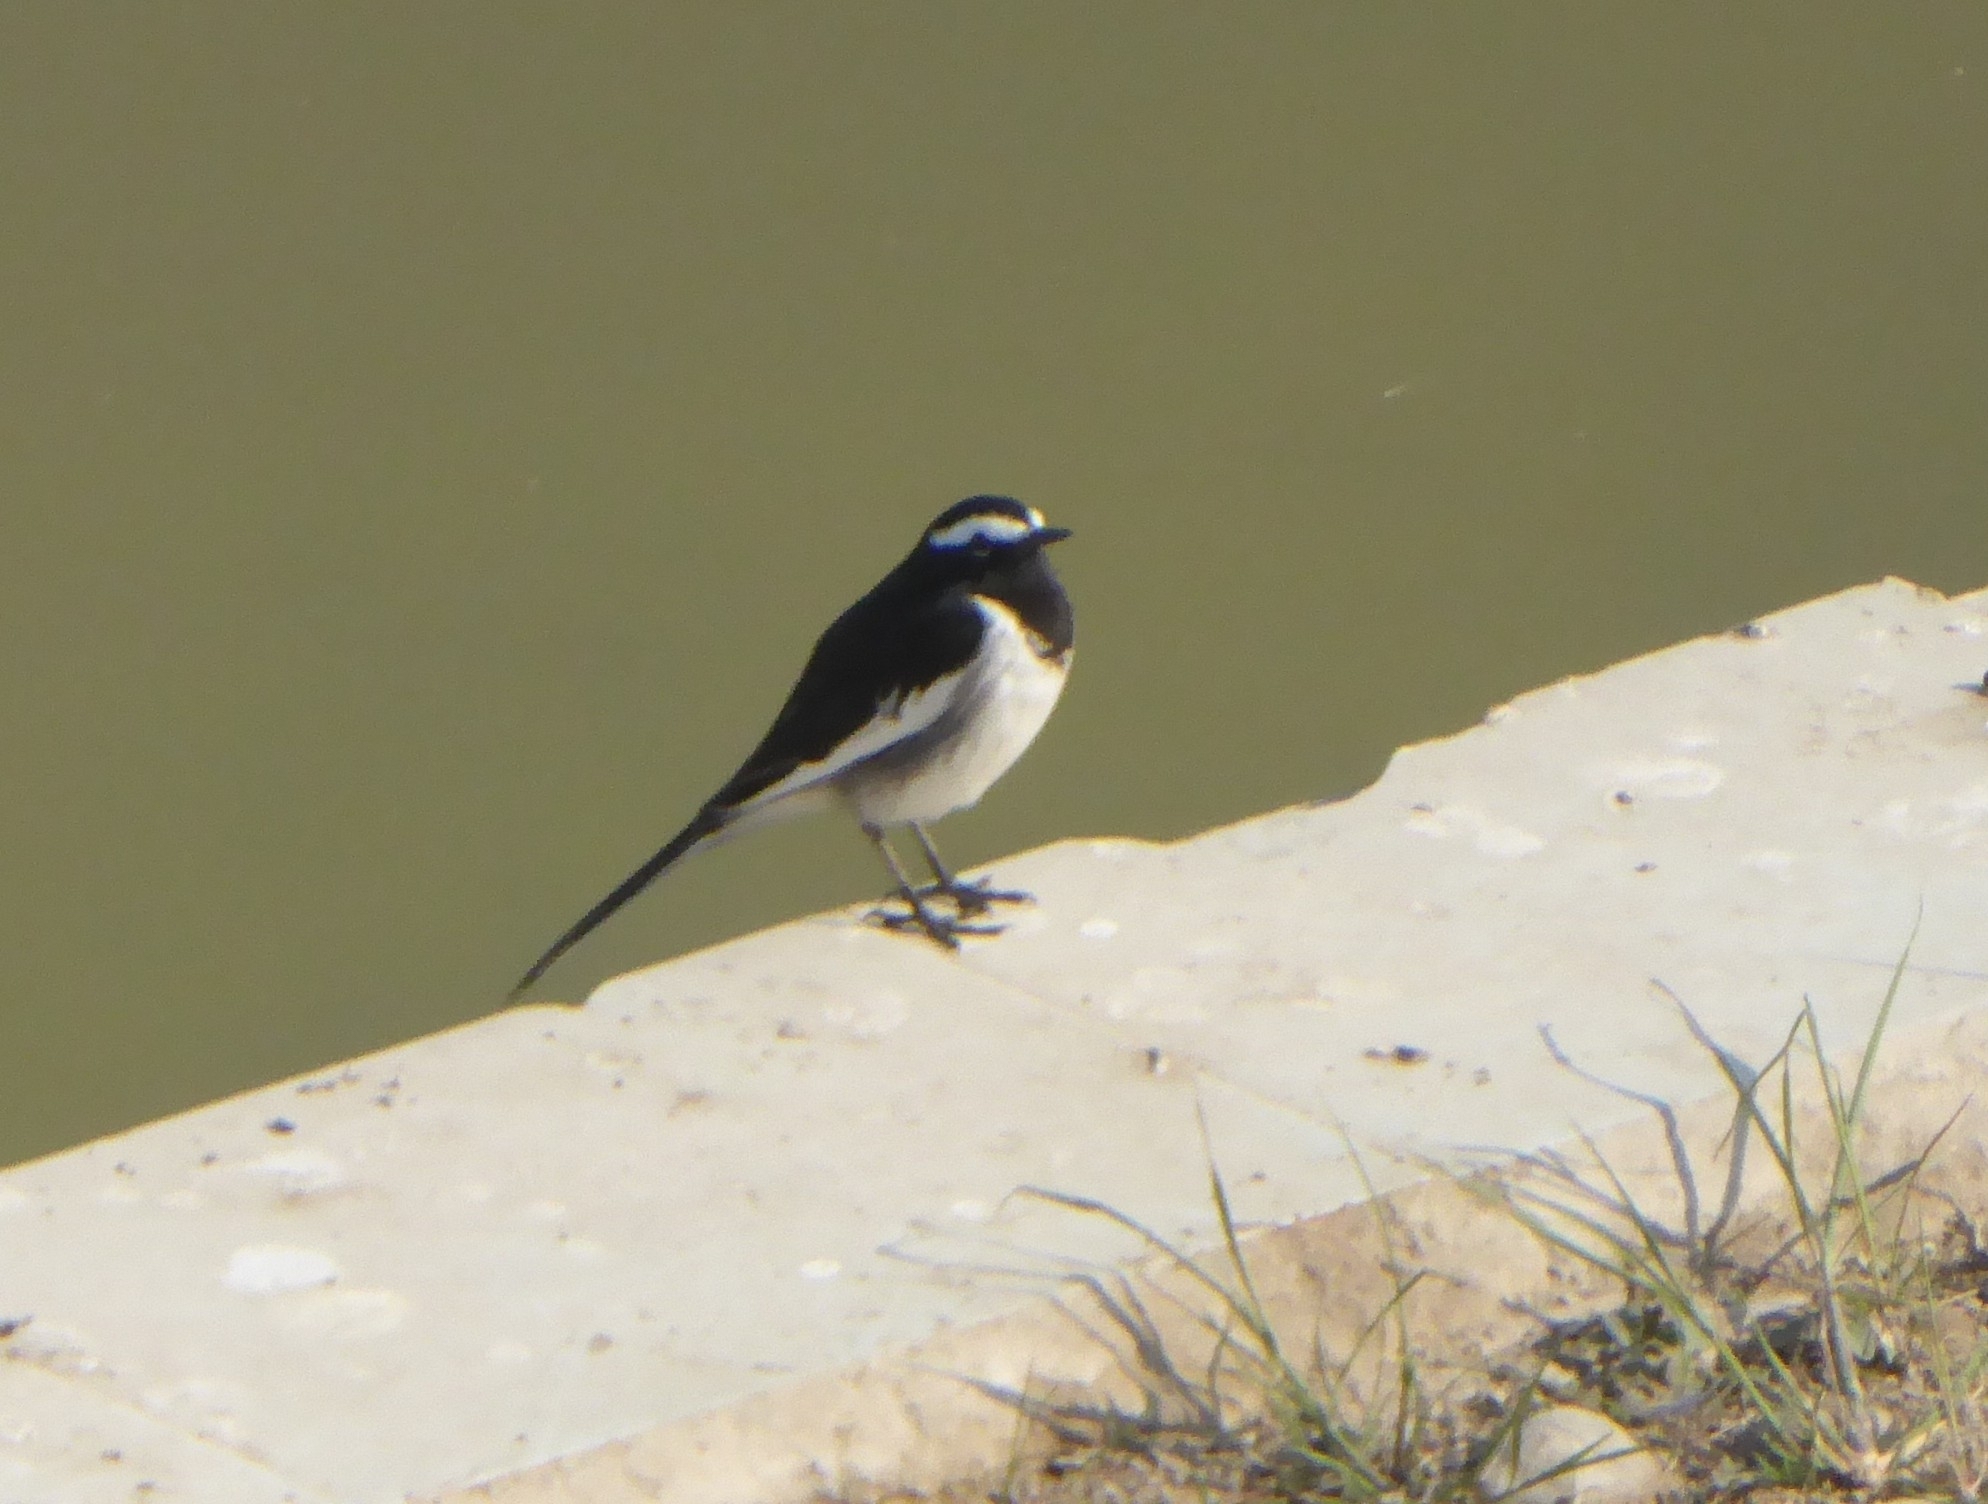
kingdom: Animalia
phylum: Chordata
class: Aves
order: Passeriformes
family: Motacillidae
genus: Motacilla
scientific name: Motacilla maderaspatensis
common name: White-browed wagtail
